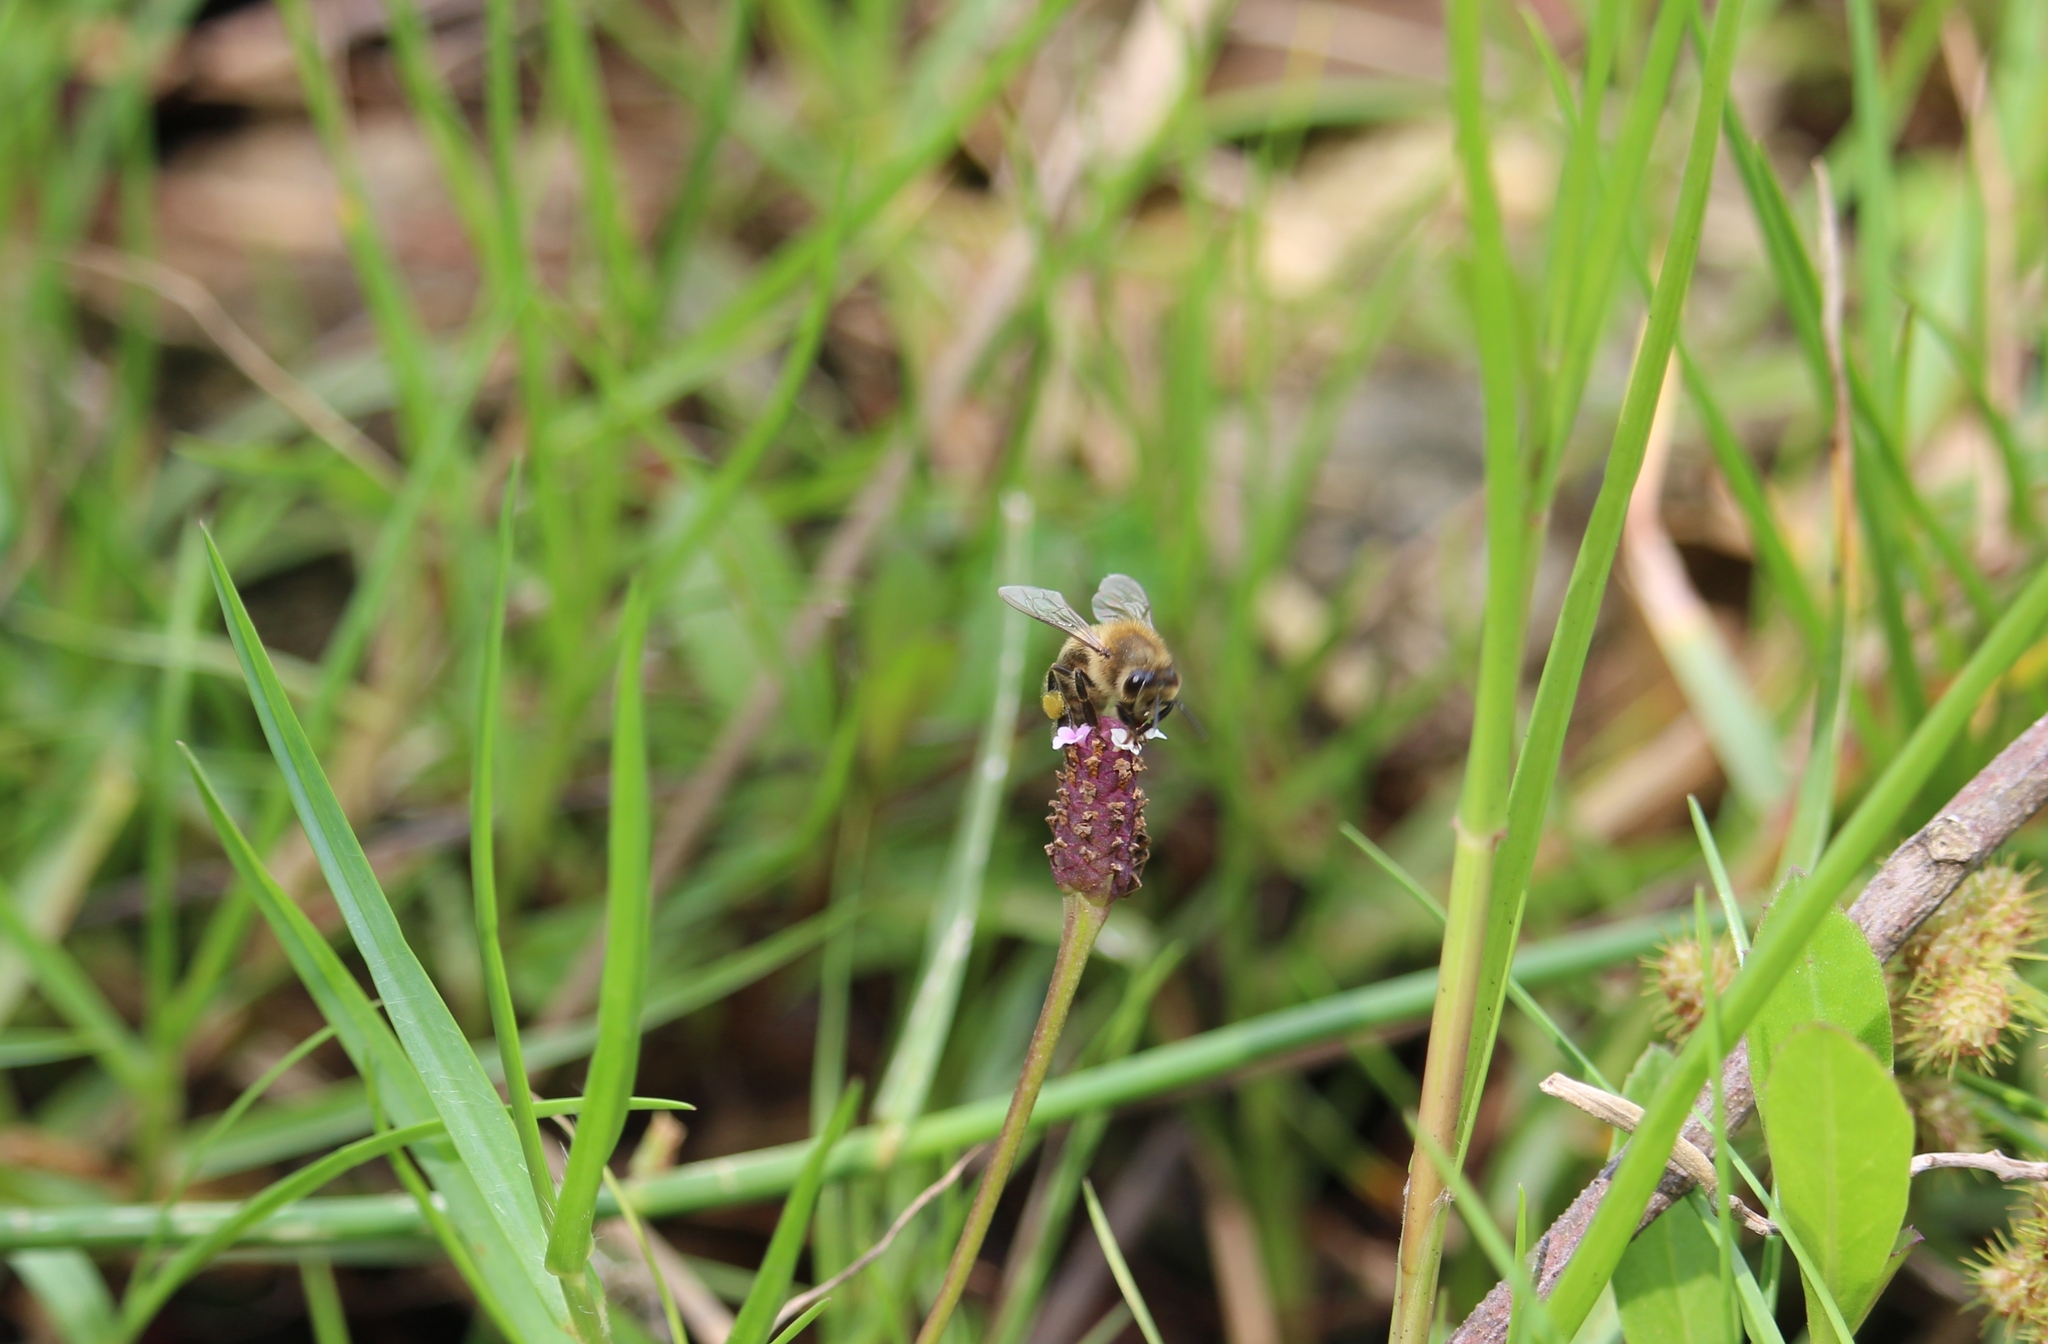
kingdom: Animalia
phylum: Arthropoda
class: Insecta
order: Hymenoptera
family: Apidae
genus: Apis
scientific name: Apis mellifera
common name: Honey bee
